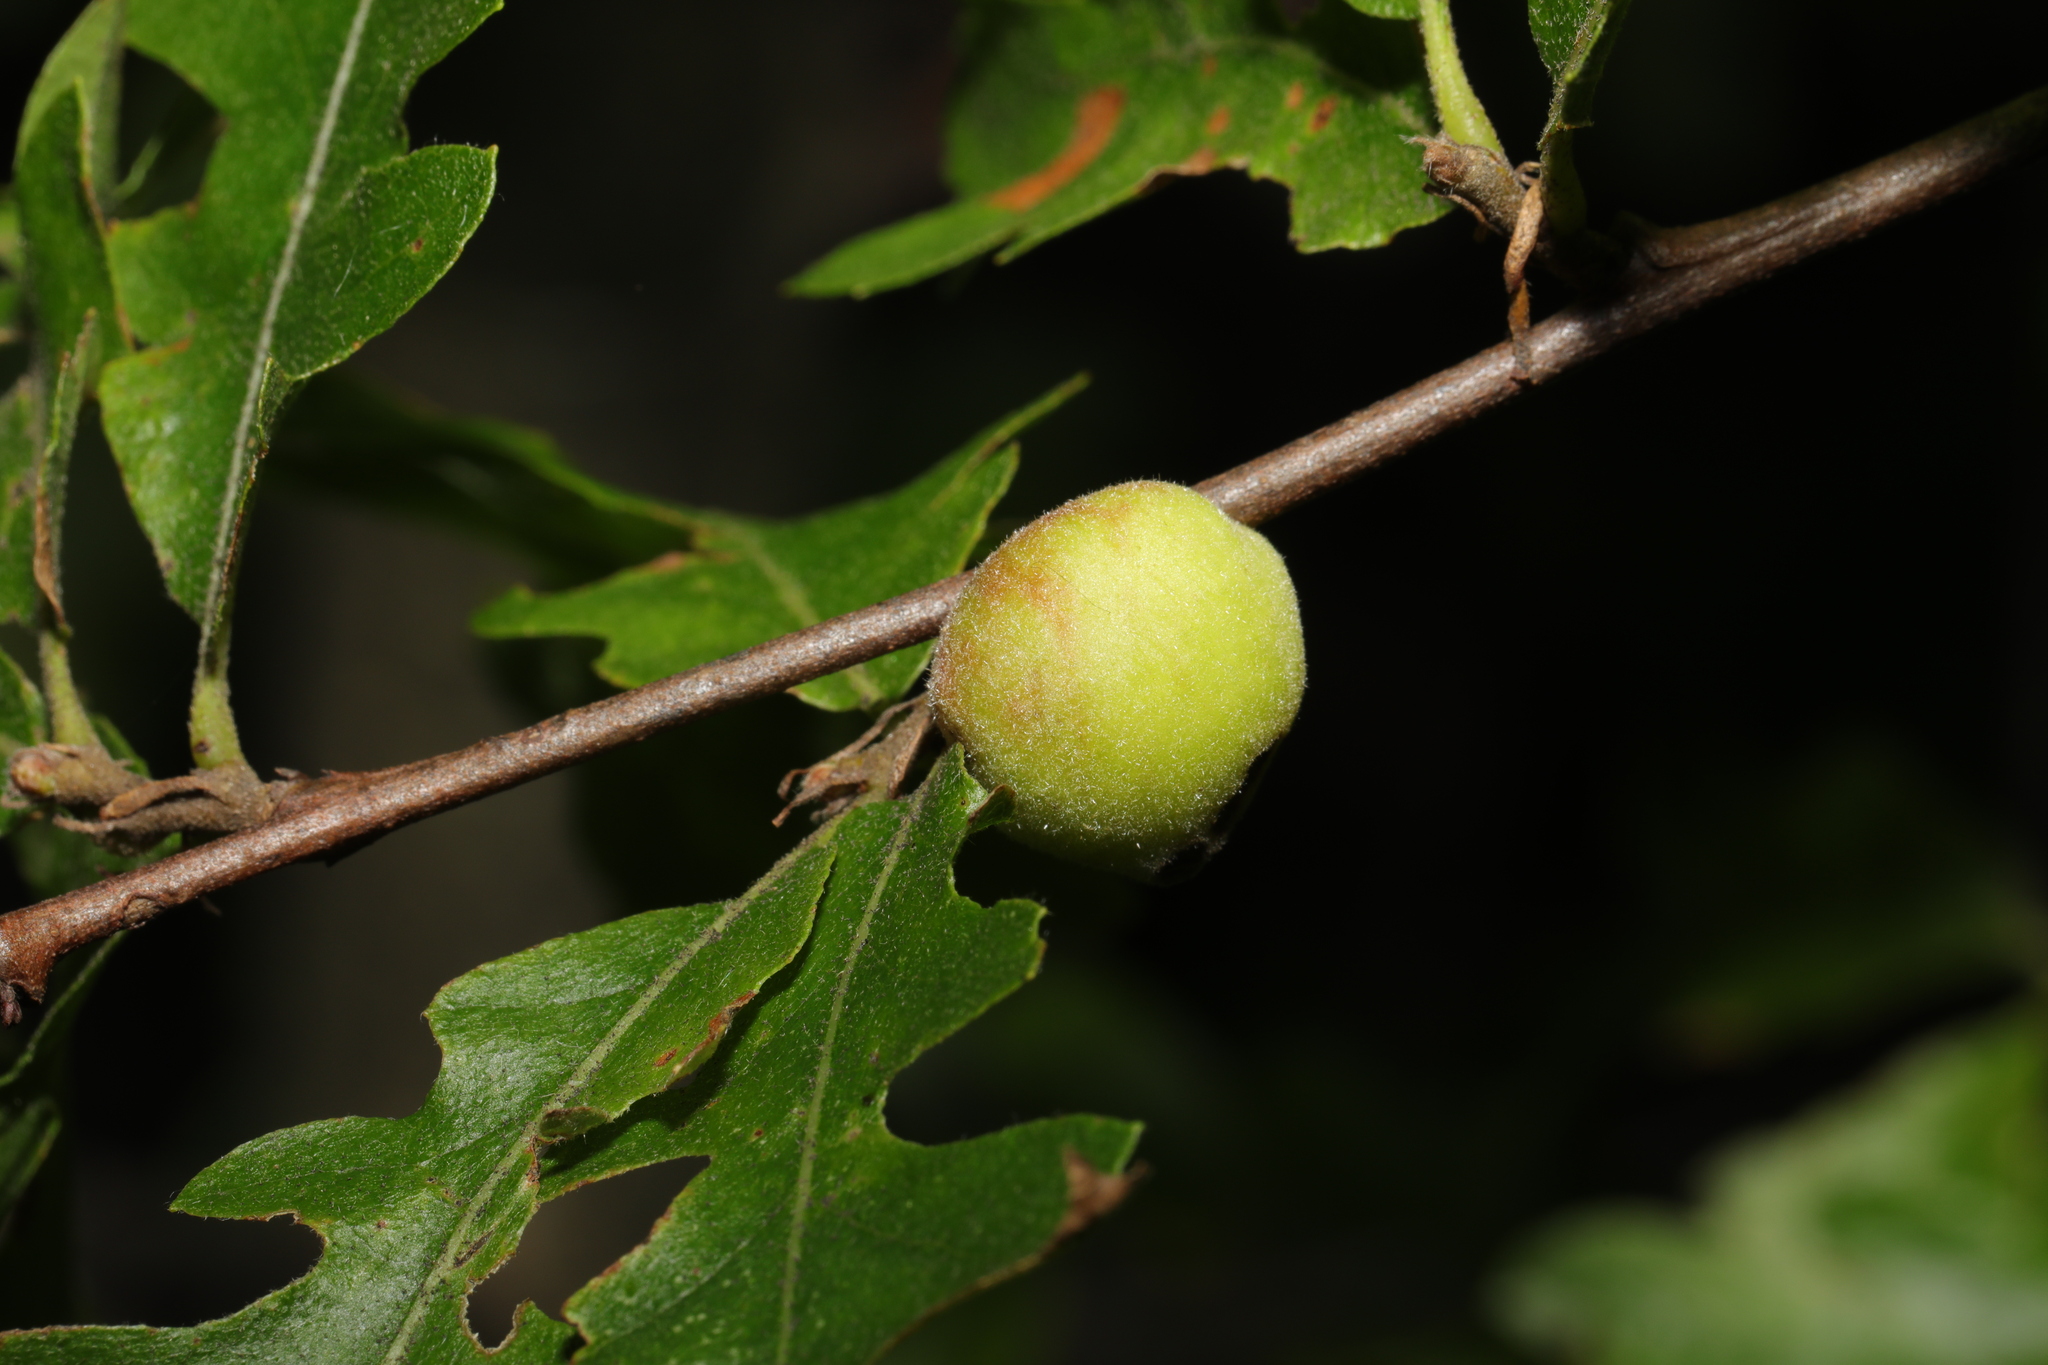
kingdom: Animalia
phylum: Arthropoda
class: Insecta
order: Hymenoptera
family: Cynipidae
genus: Aphelonyx
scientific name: Aphelonyx cerricola
